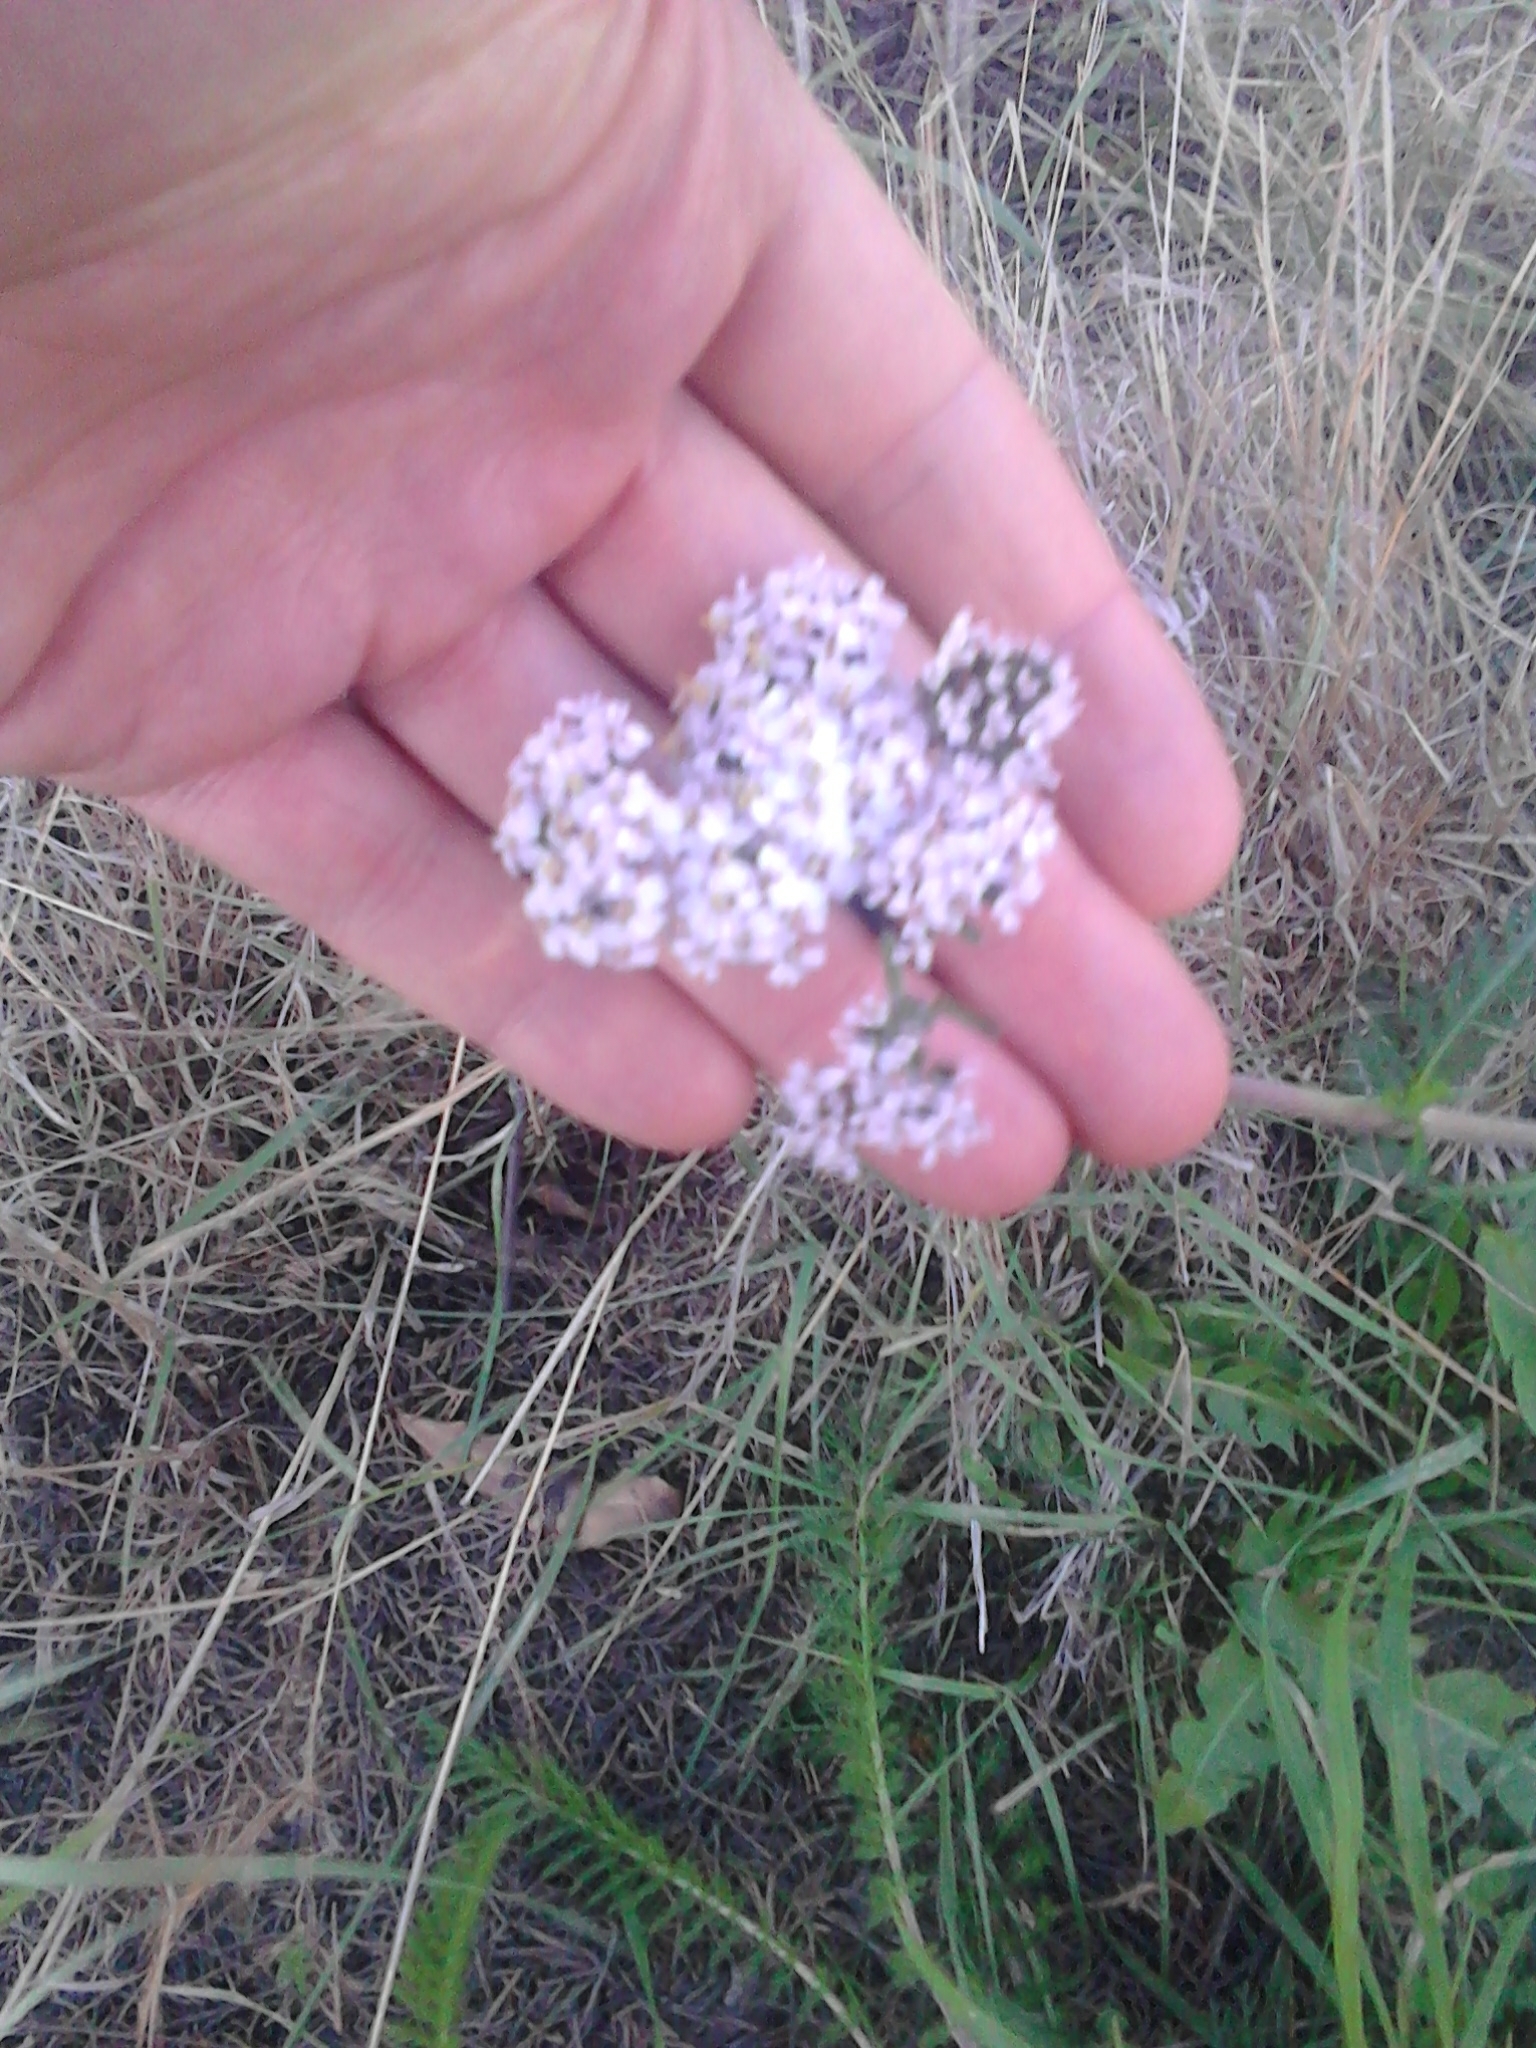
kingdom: Plantae
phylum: Tracheophyta
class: Magnoliopsida
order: Asterales
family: Asteraceae
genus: Achillea
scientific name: Achillea millefolium
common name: Yarrow
